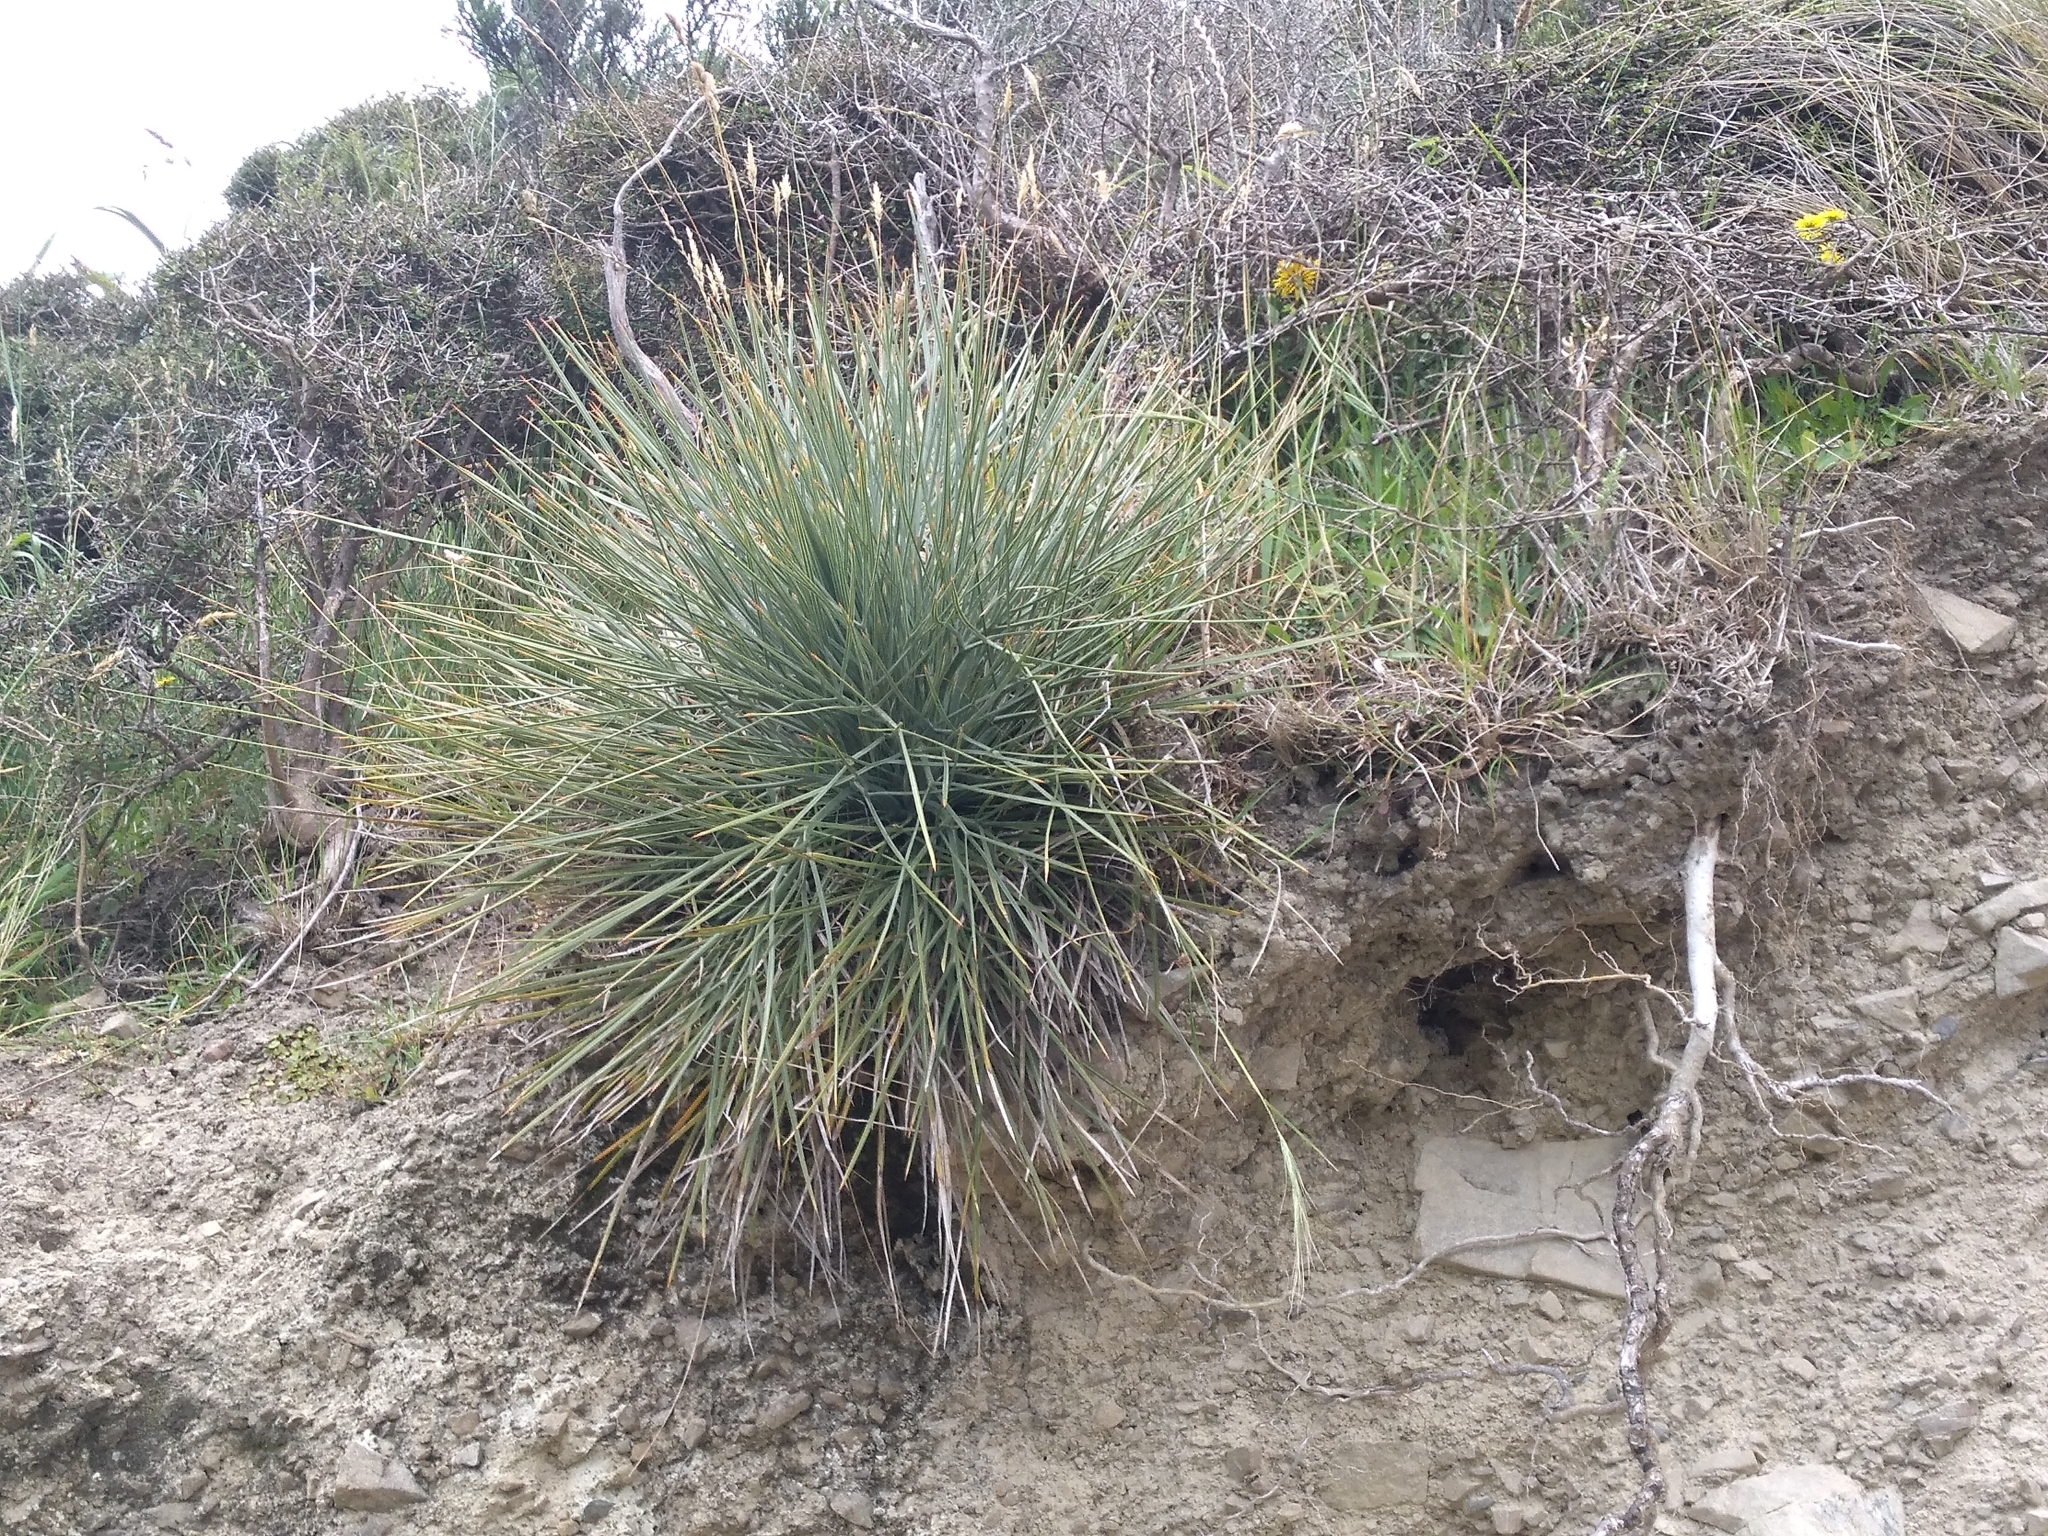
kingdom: Plantae
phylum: Tracheophyta
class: Magnoliopsida
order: Apiales
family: Apiaceae
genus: Aciphylla
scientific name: Aciphylla squarrosa
